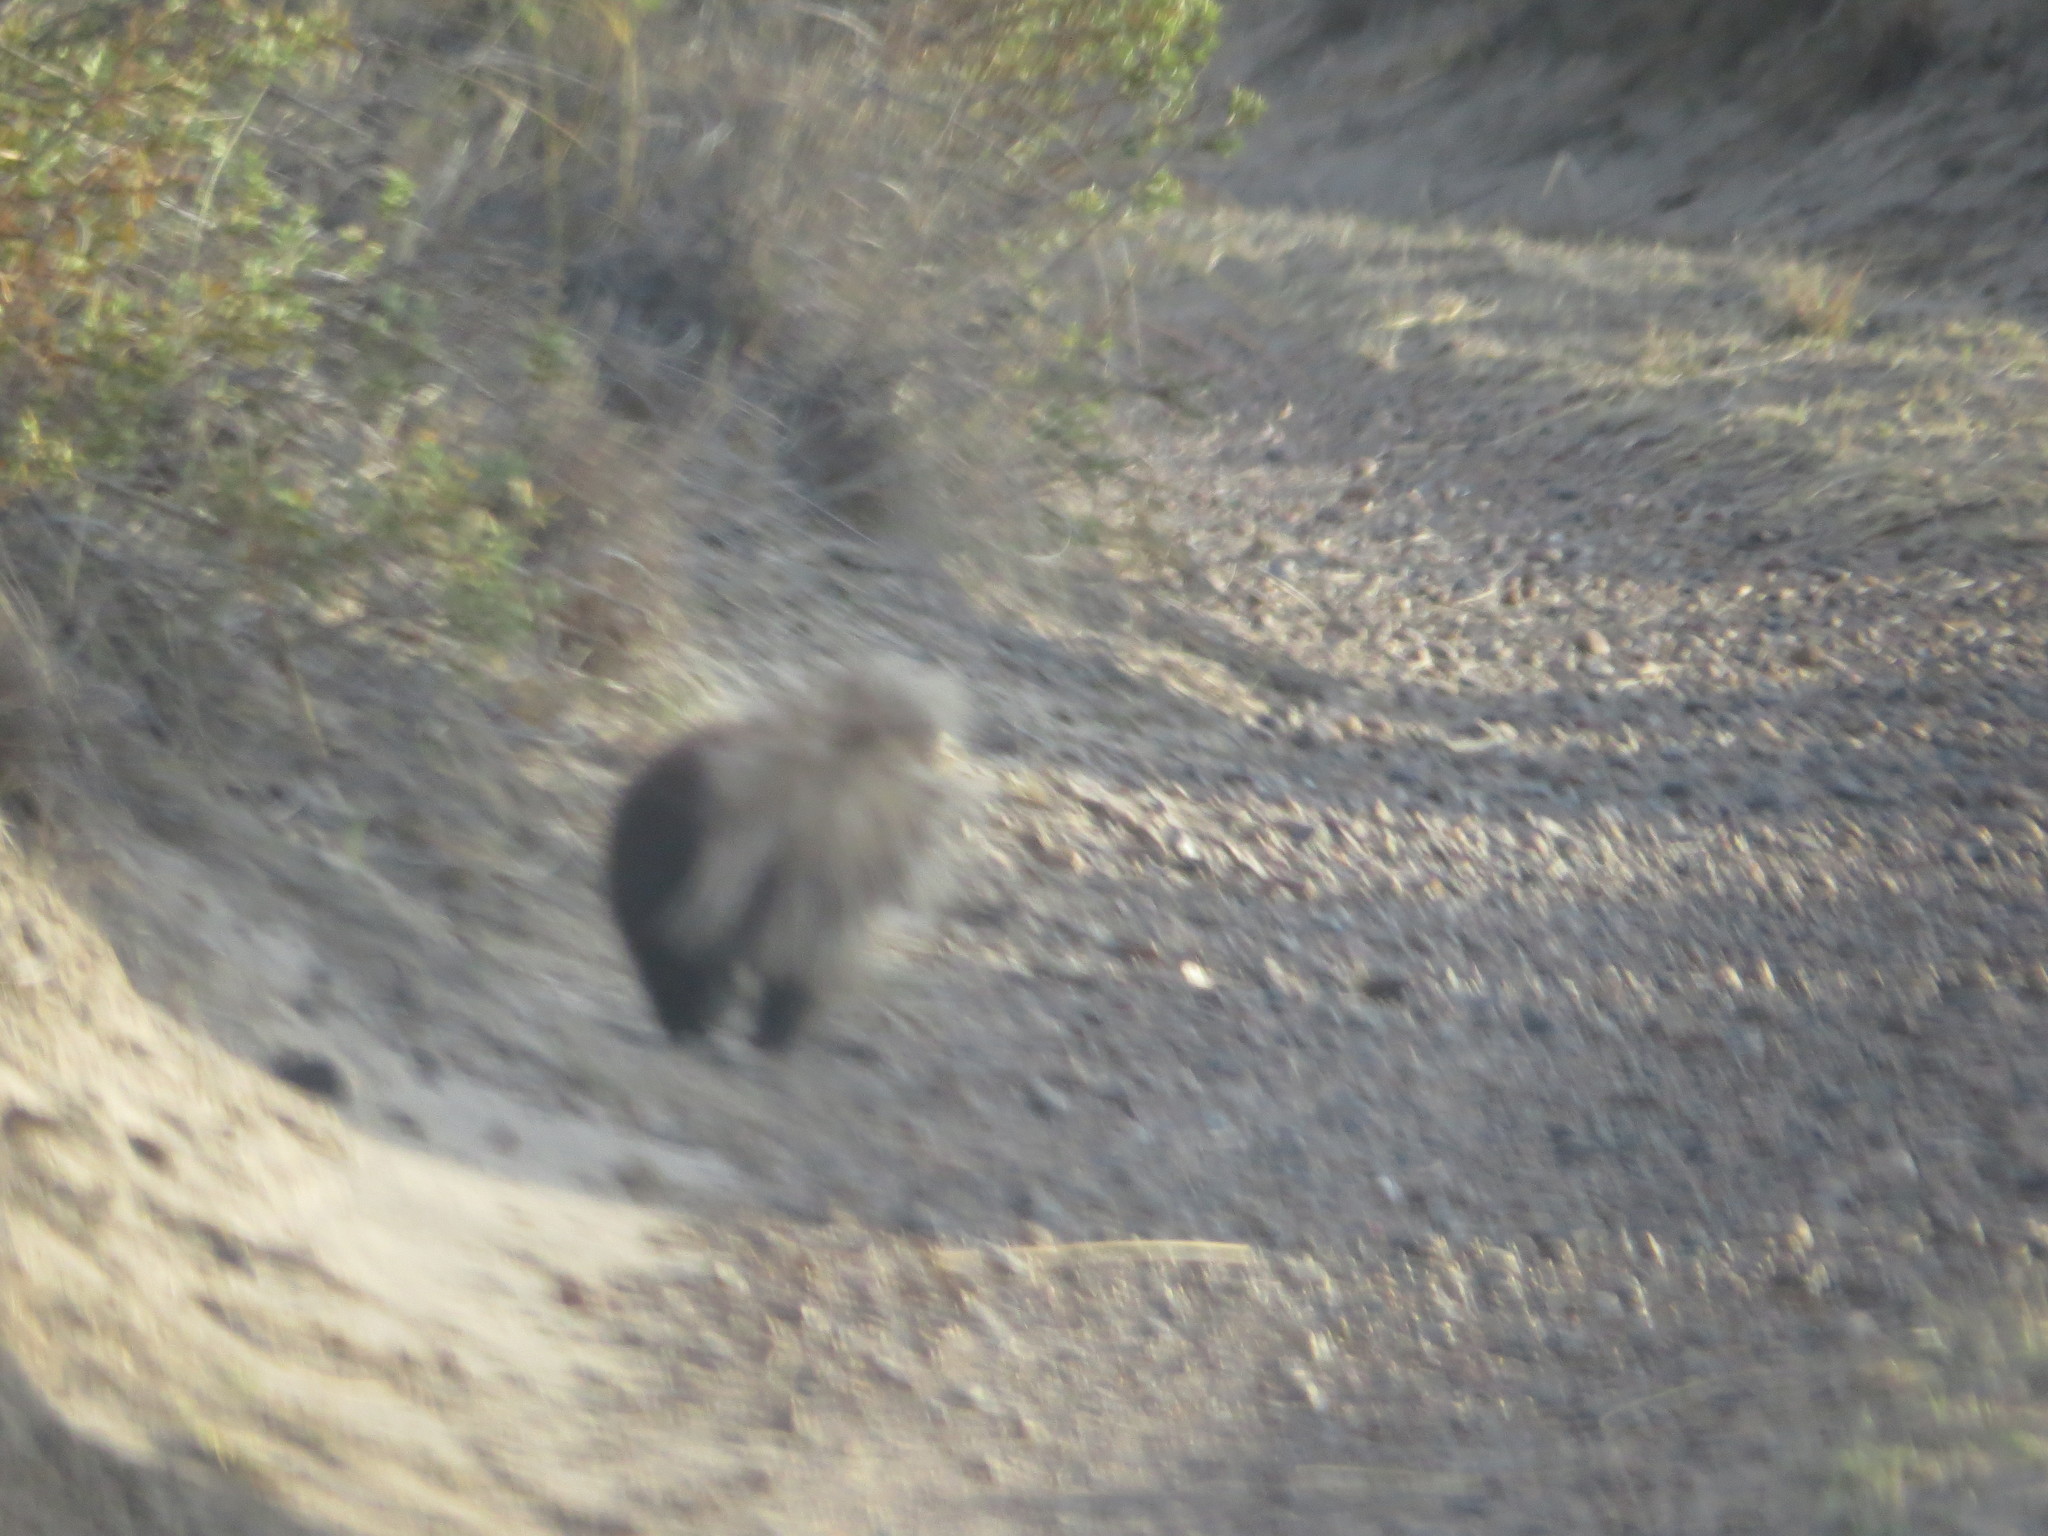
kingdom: Animalia
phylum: Chordata
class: Mammalia
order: Carnivora
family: Mephitidae
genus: Conepatus
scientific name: Conepatus chinga
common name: Molina's hog-nosed skunk
